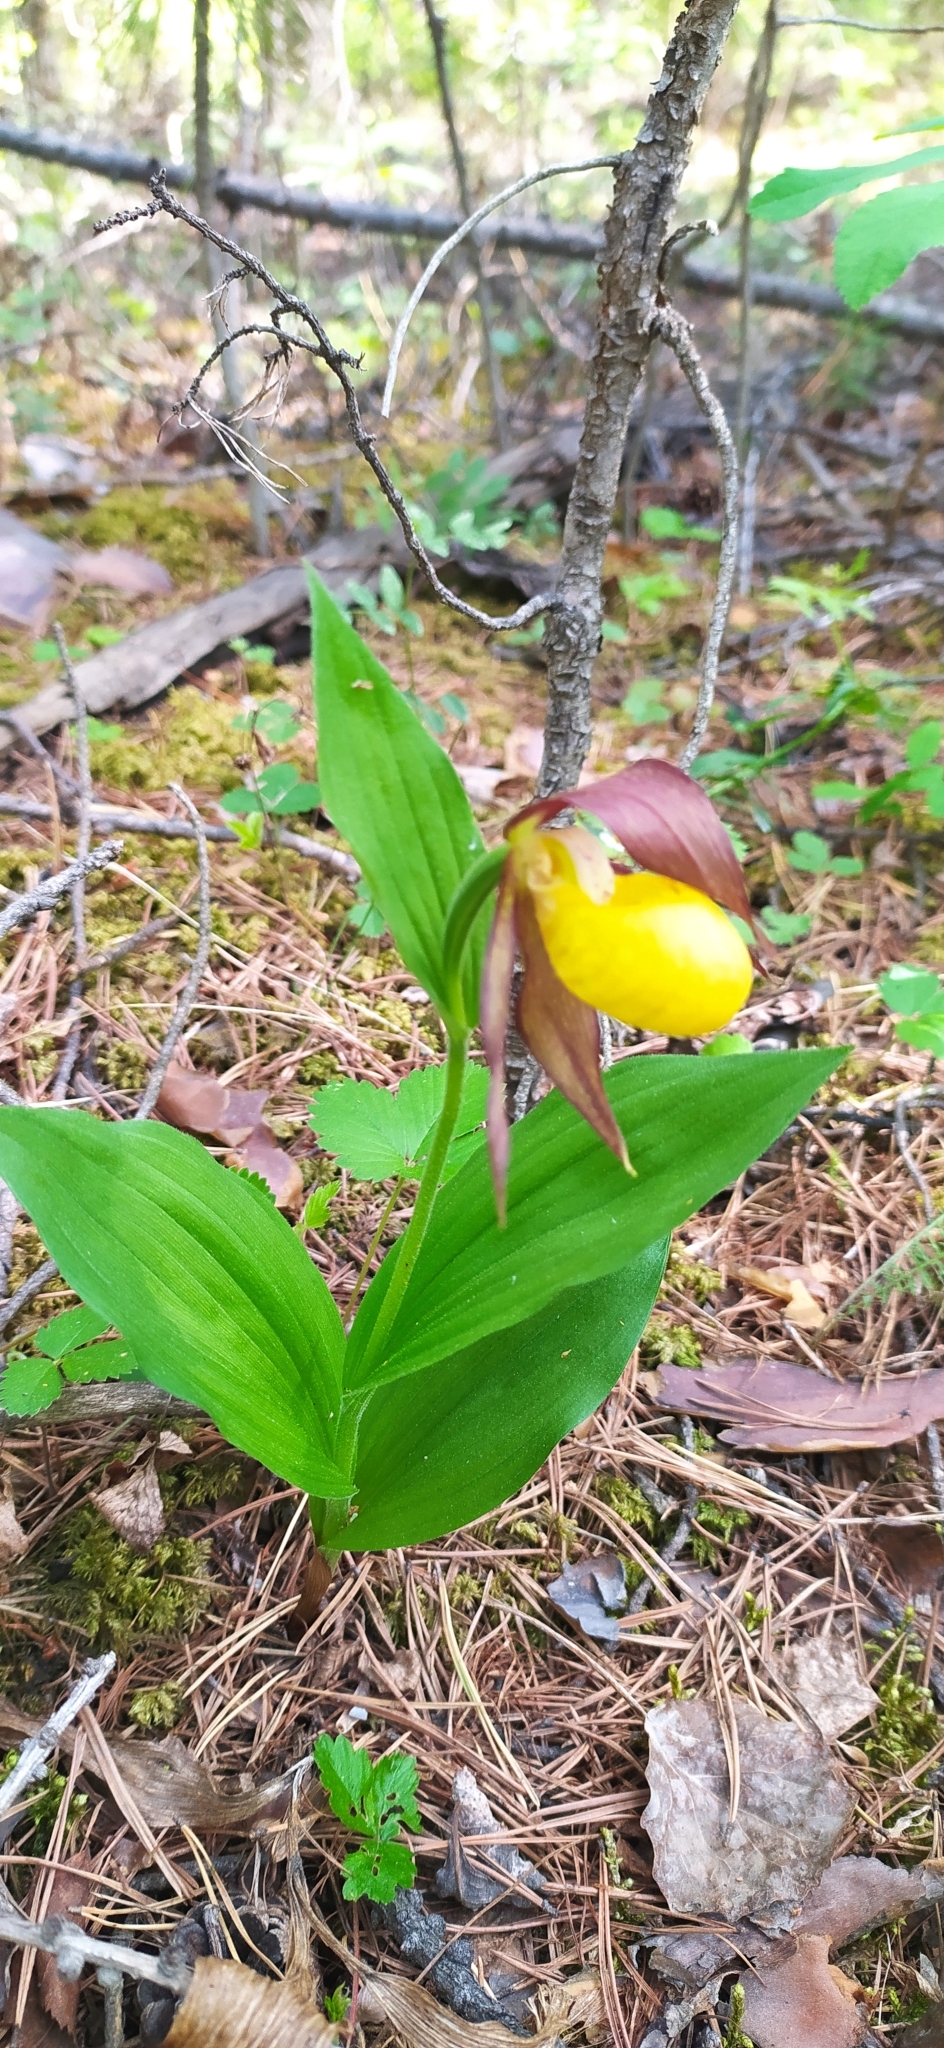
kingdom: Plantae
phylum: Tracheophyta
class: Liliopsida
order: Asparagales
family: Orchidaceae
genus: Cypripedium
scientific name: Cypripedium calceolus
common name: Lady's-slipper
